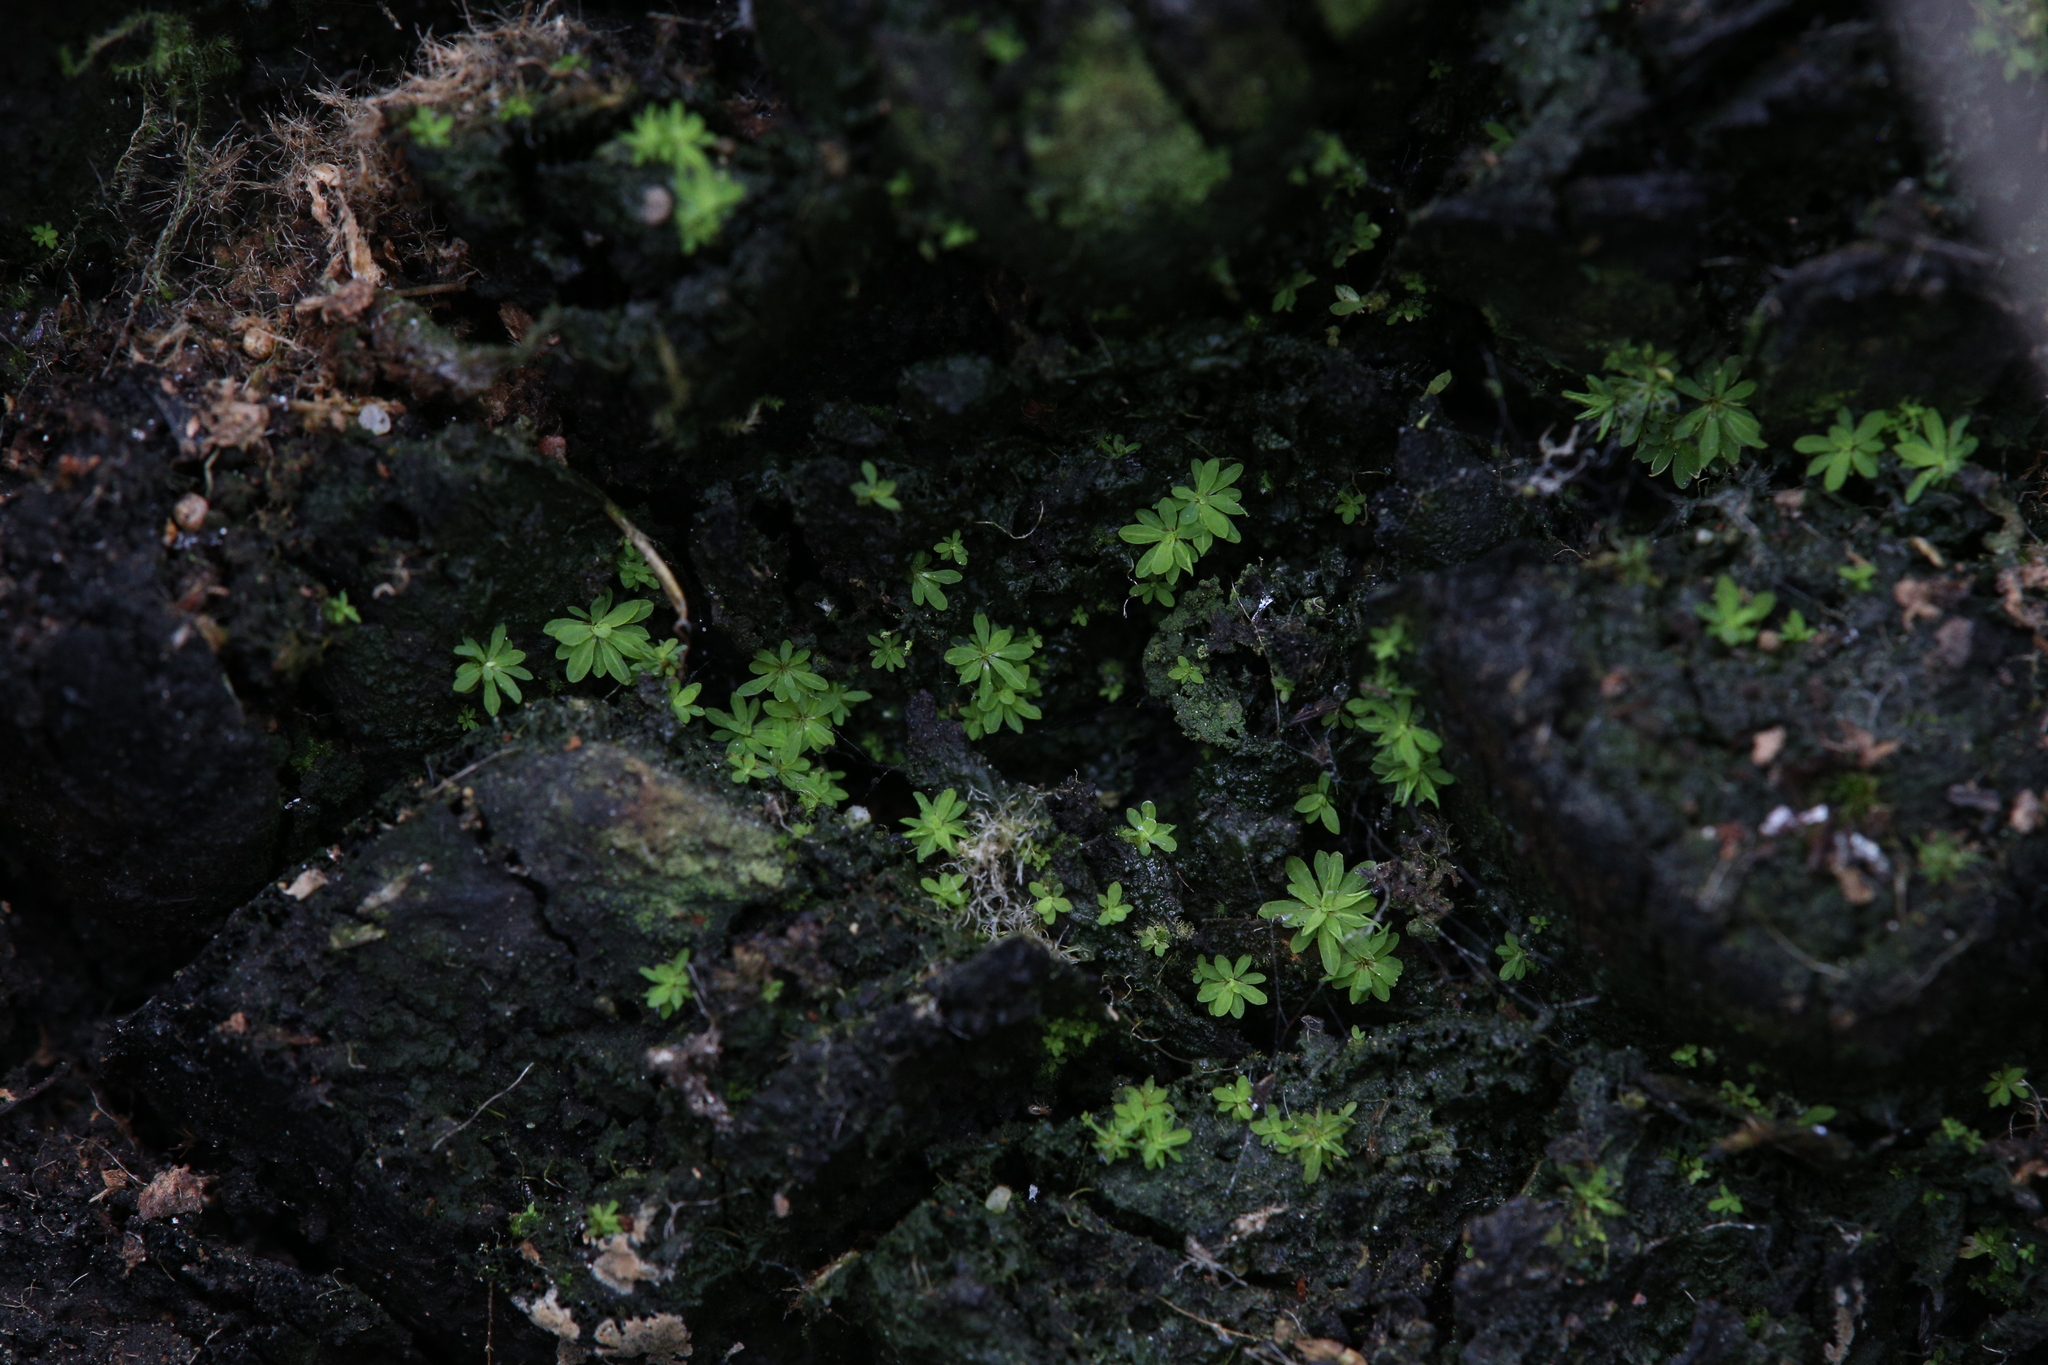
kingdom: Plantae
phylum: Bryophyta
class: Bryopsida
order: Pottiales
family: Pottiaceae
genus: Calymperastrum
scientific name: Calymperastrum latifolium
